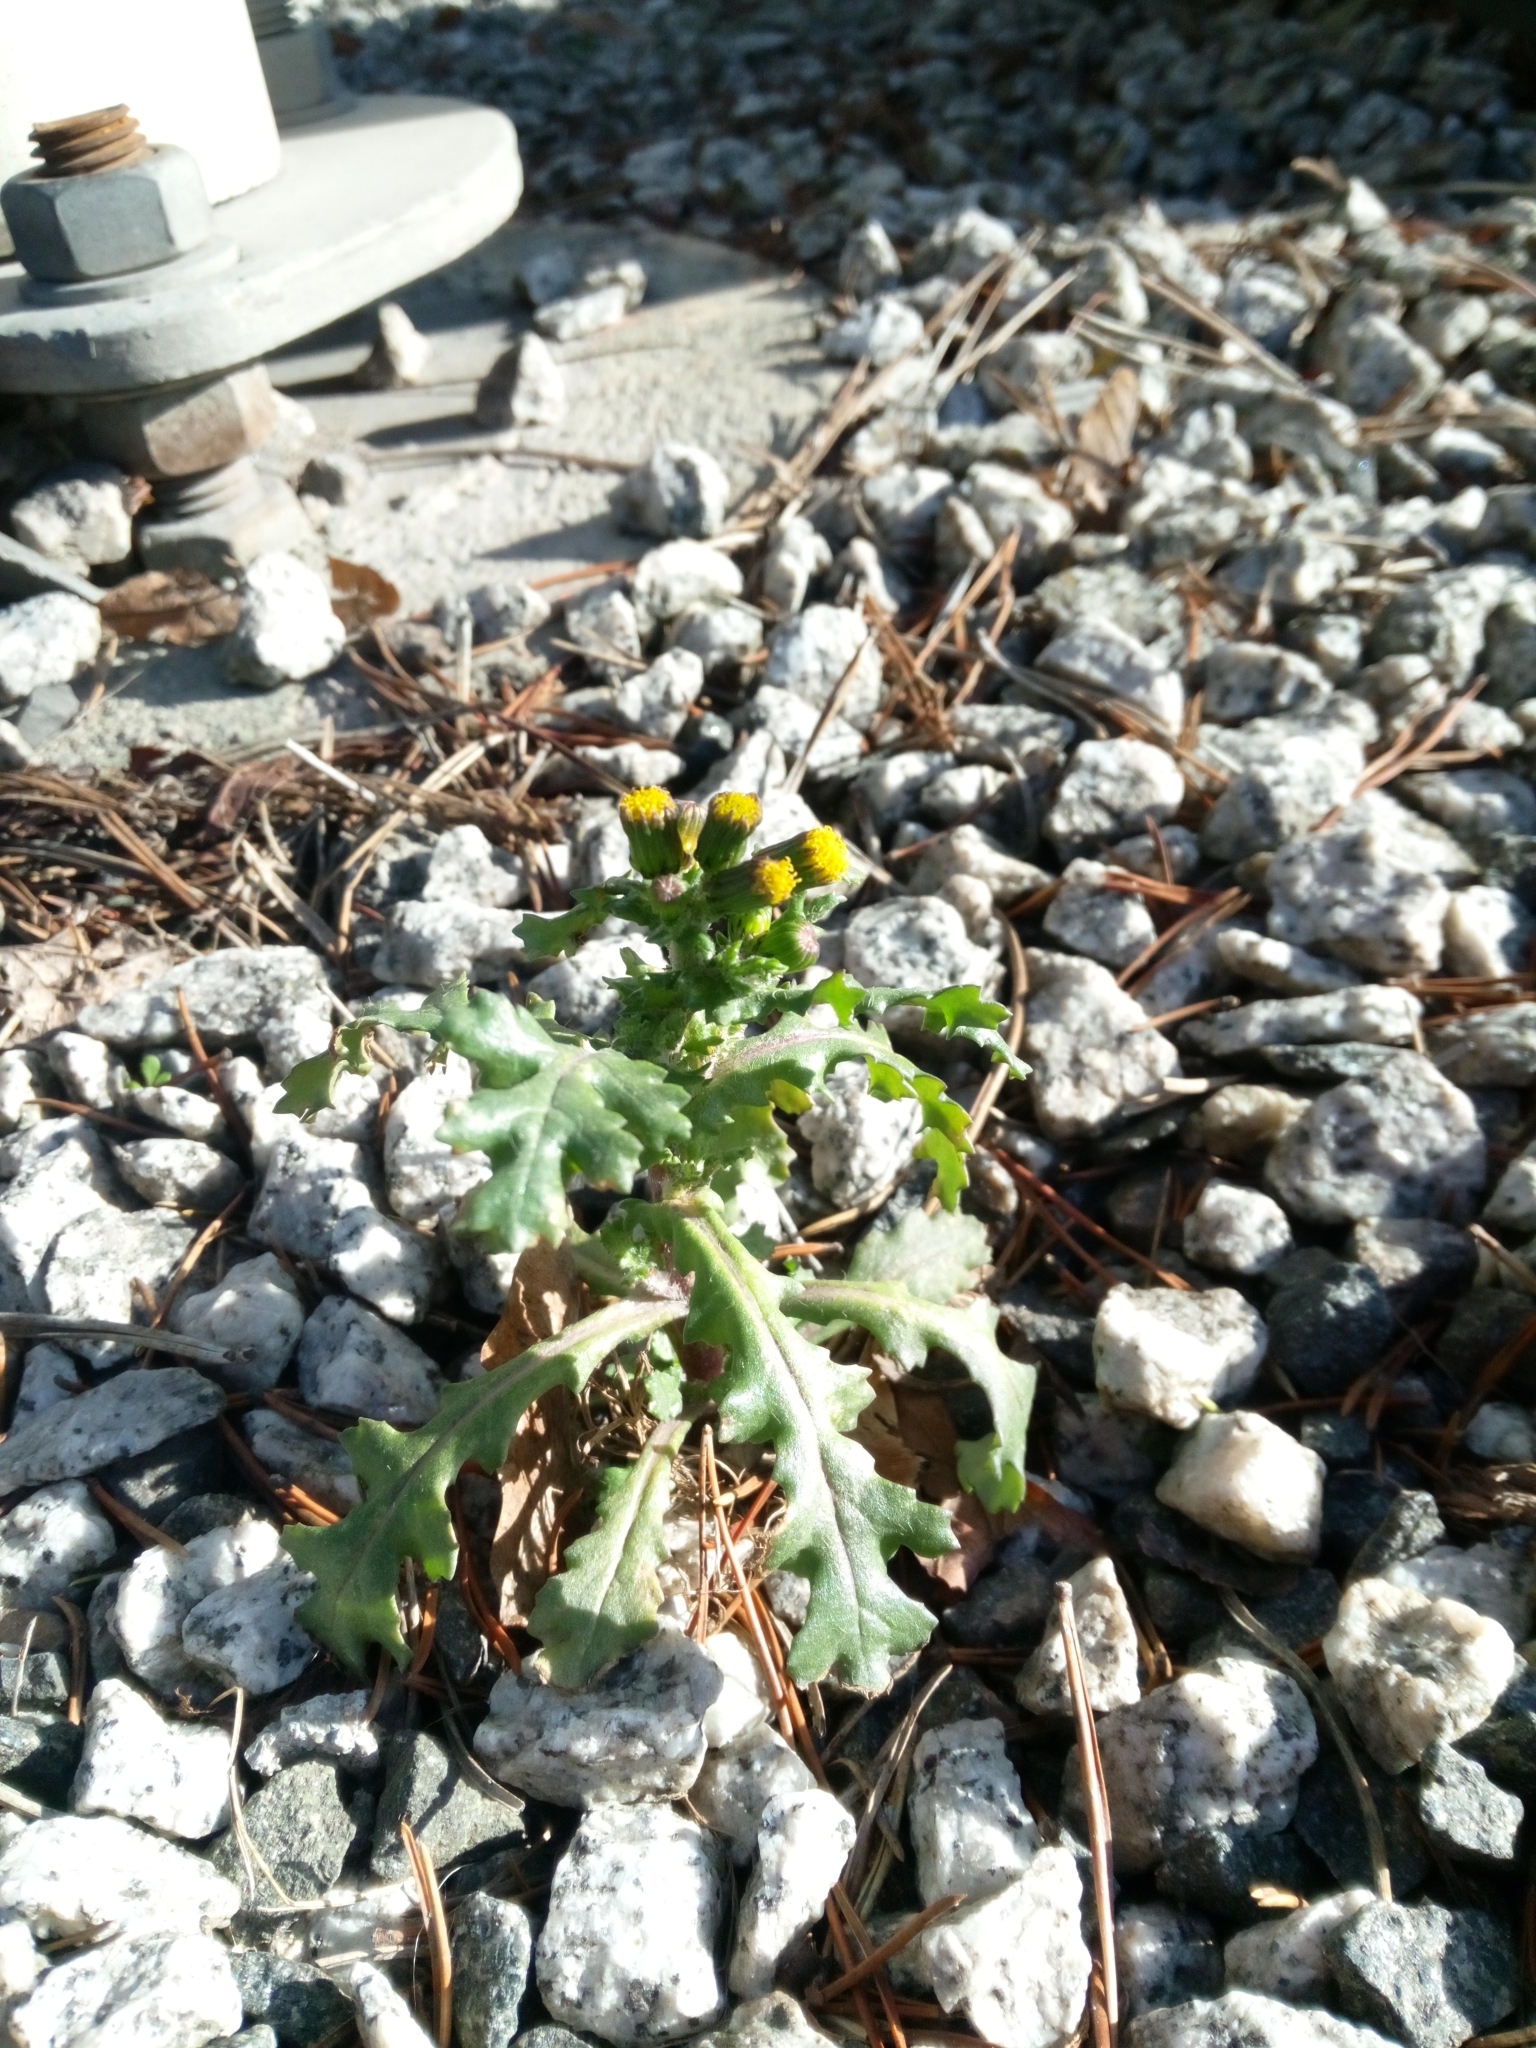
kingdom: Plantae
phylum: Tracheophyta
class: Magnoliopsida
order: Asterales
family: Asteraceae
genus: Senecio
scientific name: Senecio vulgaris
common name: Old-man-in-the-spring
